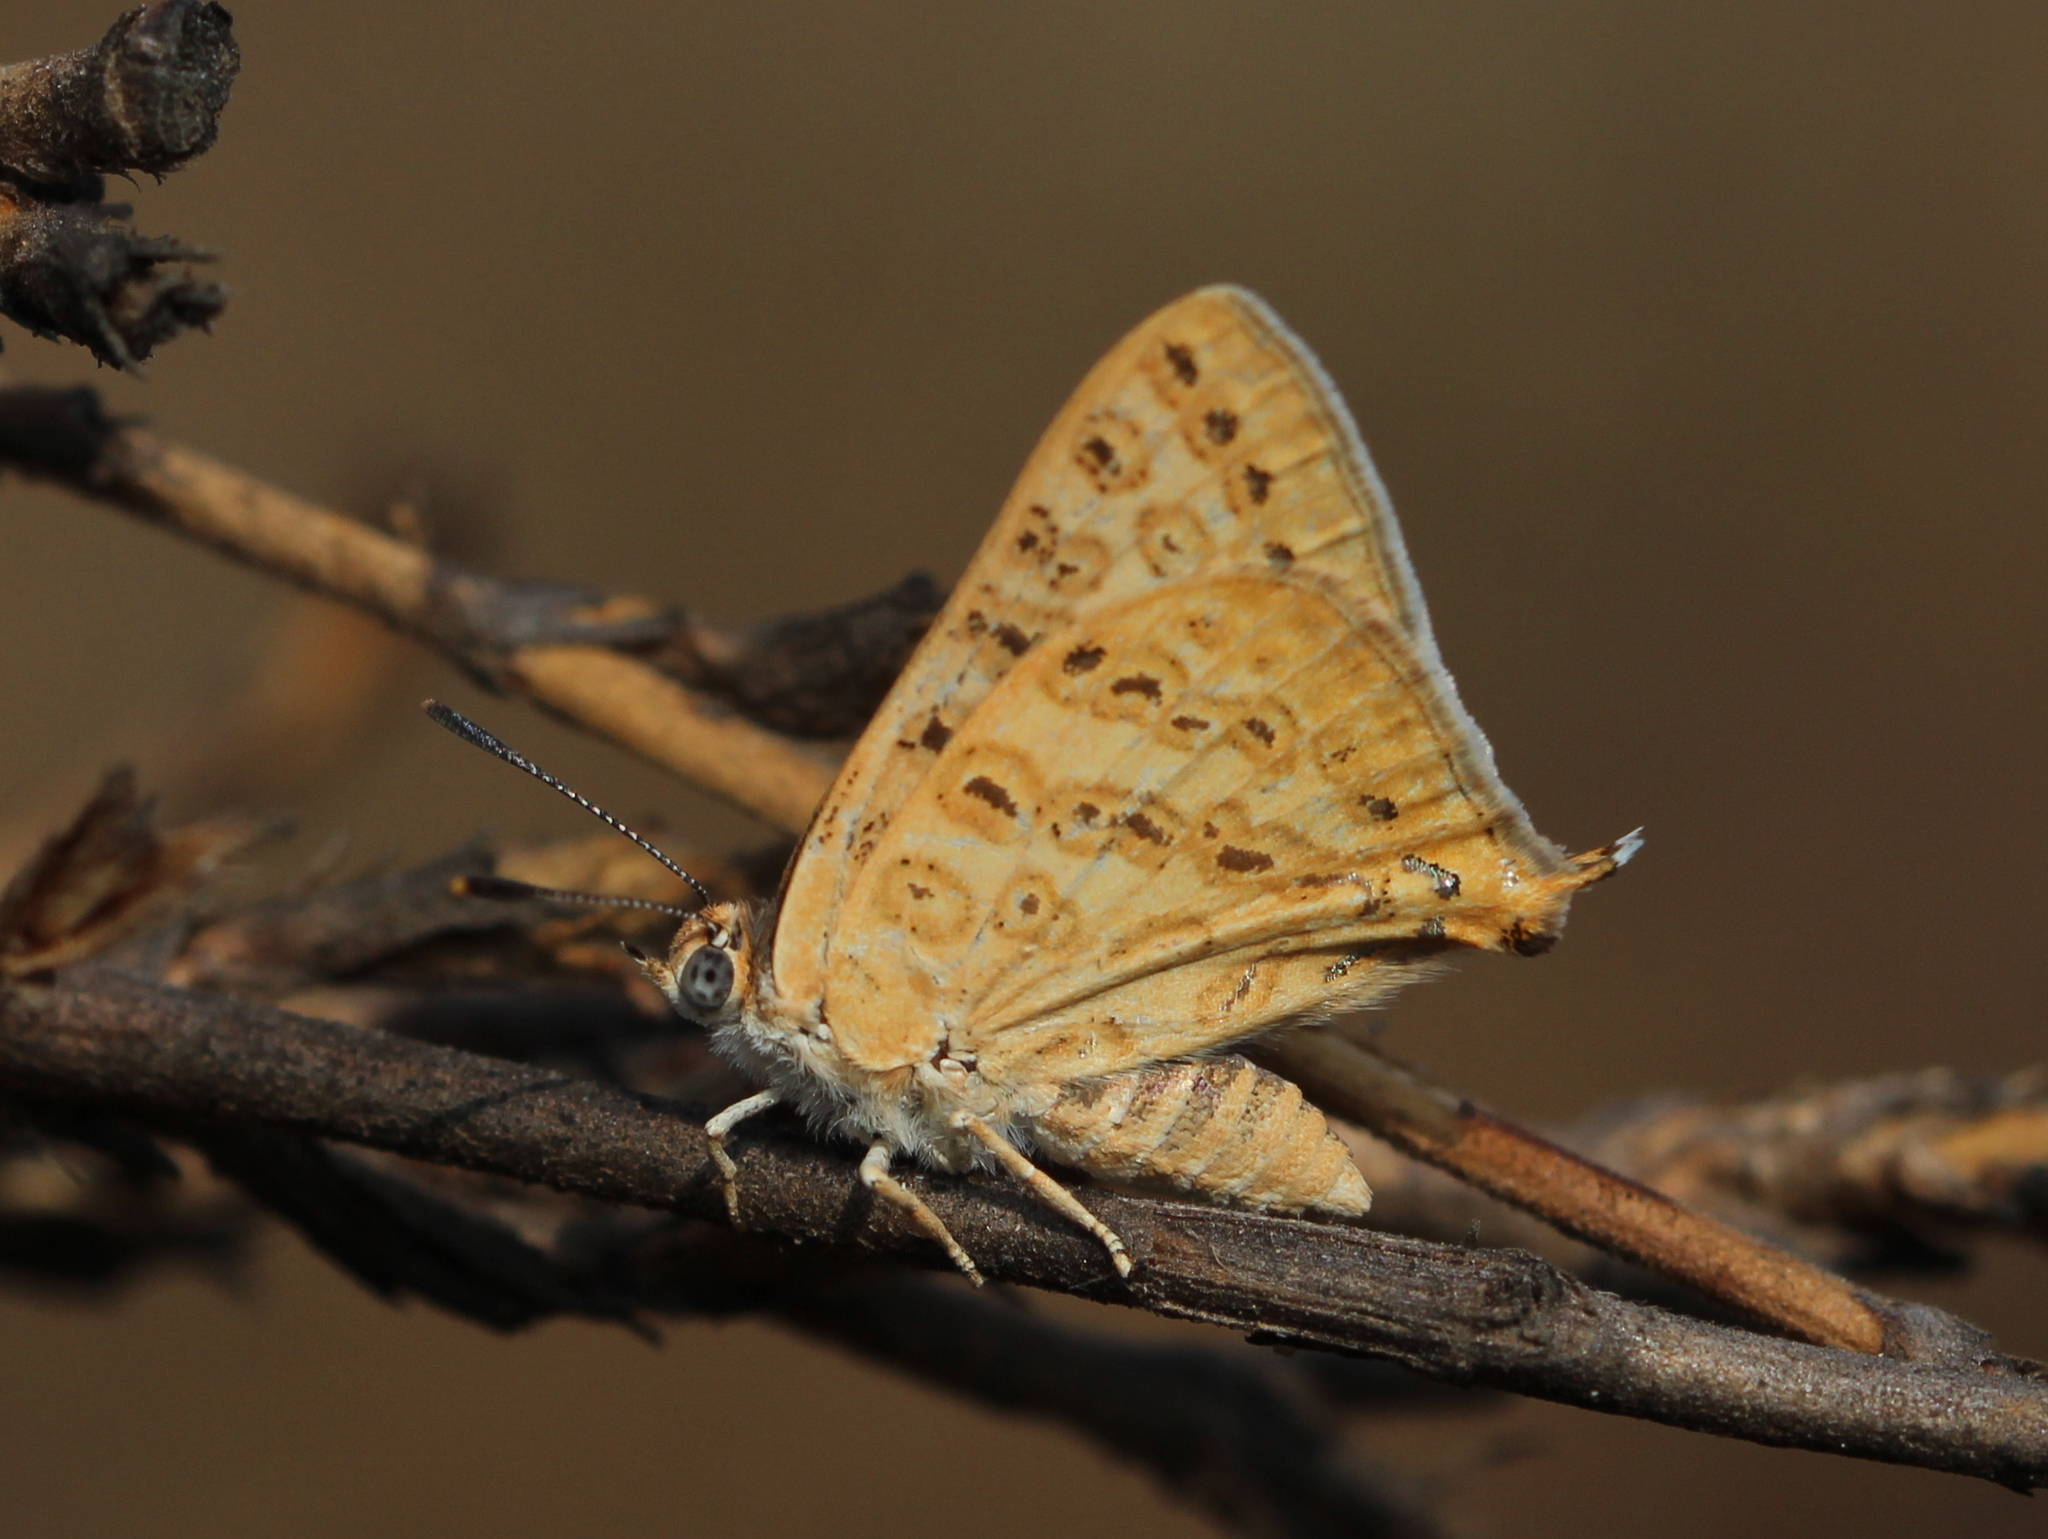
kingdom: Animalia
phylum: Arthropoda
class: Insecta
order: Lepidoptera
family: Lycaenidae
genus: Aphnaeus
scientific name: Aphnaeus lilacinus
